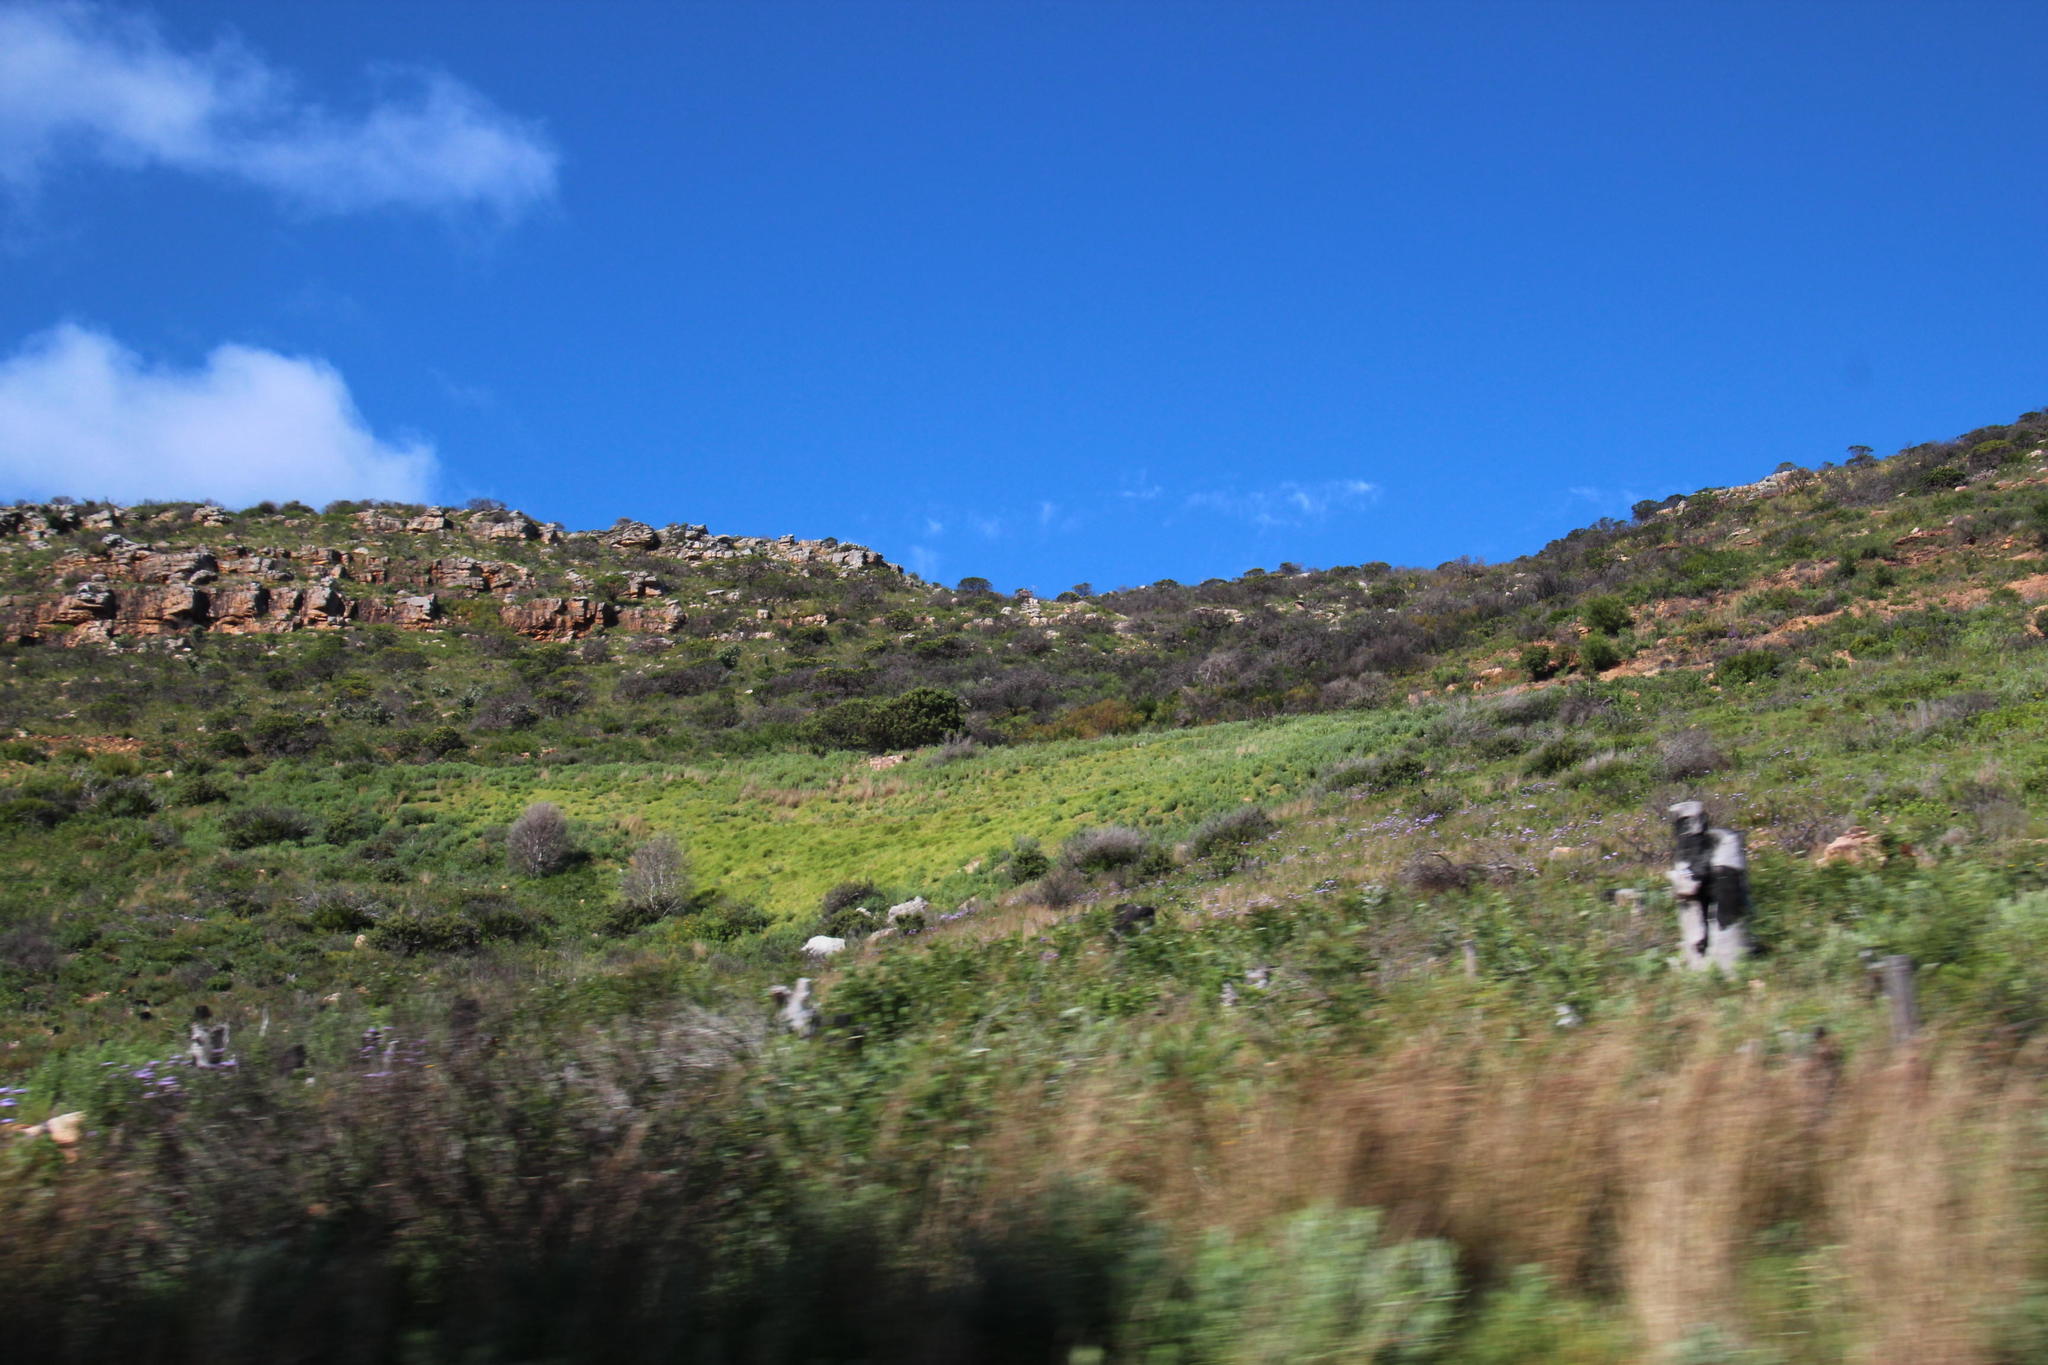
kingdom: Plantae
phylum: Tracheophyta
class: Liliopsida
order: Poales
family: Poaceae
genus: Cenchrus
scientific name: Cenchrus clandestinus
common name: Kikuyugrass
